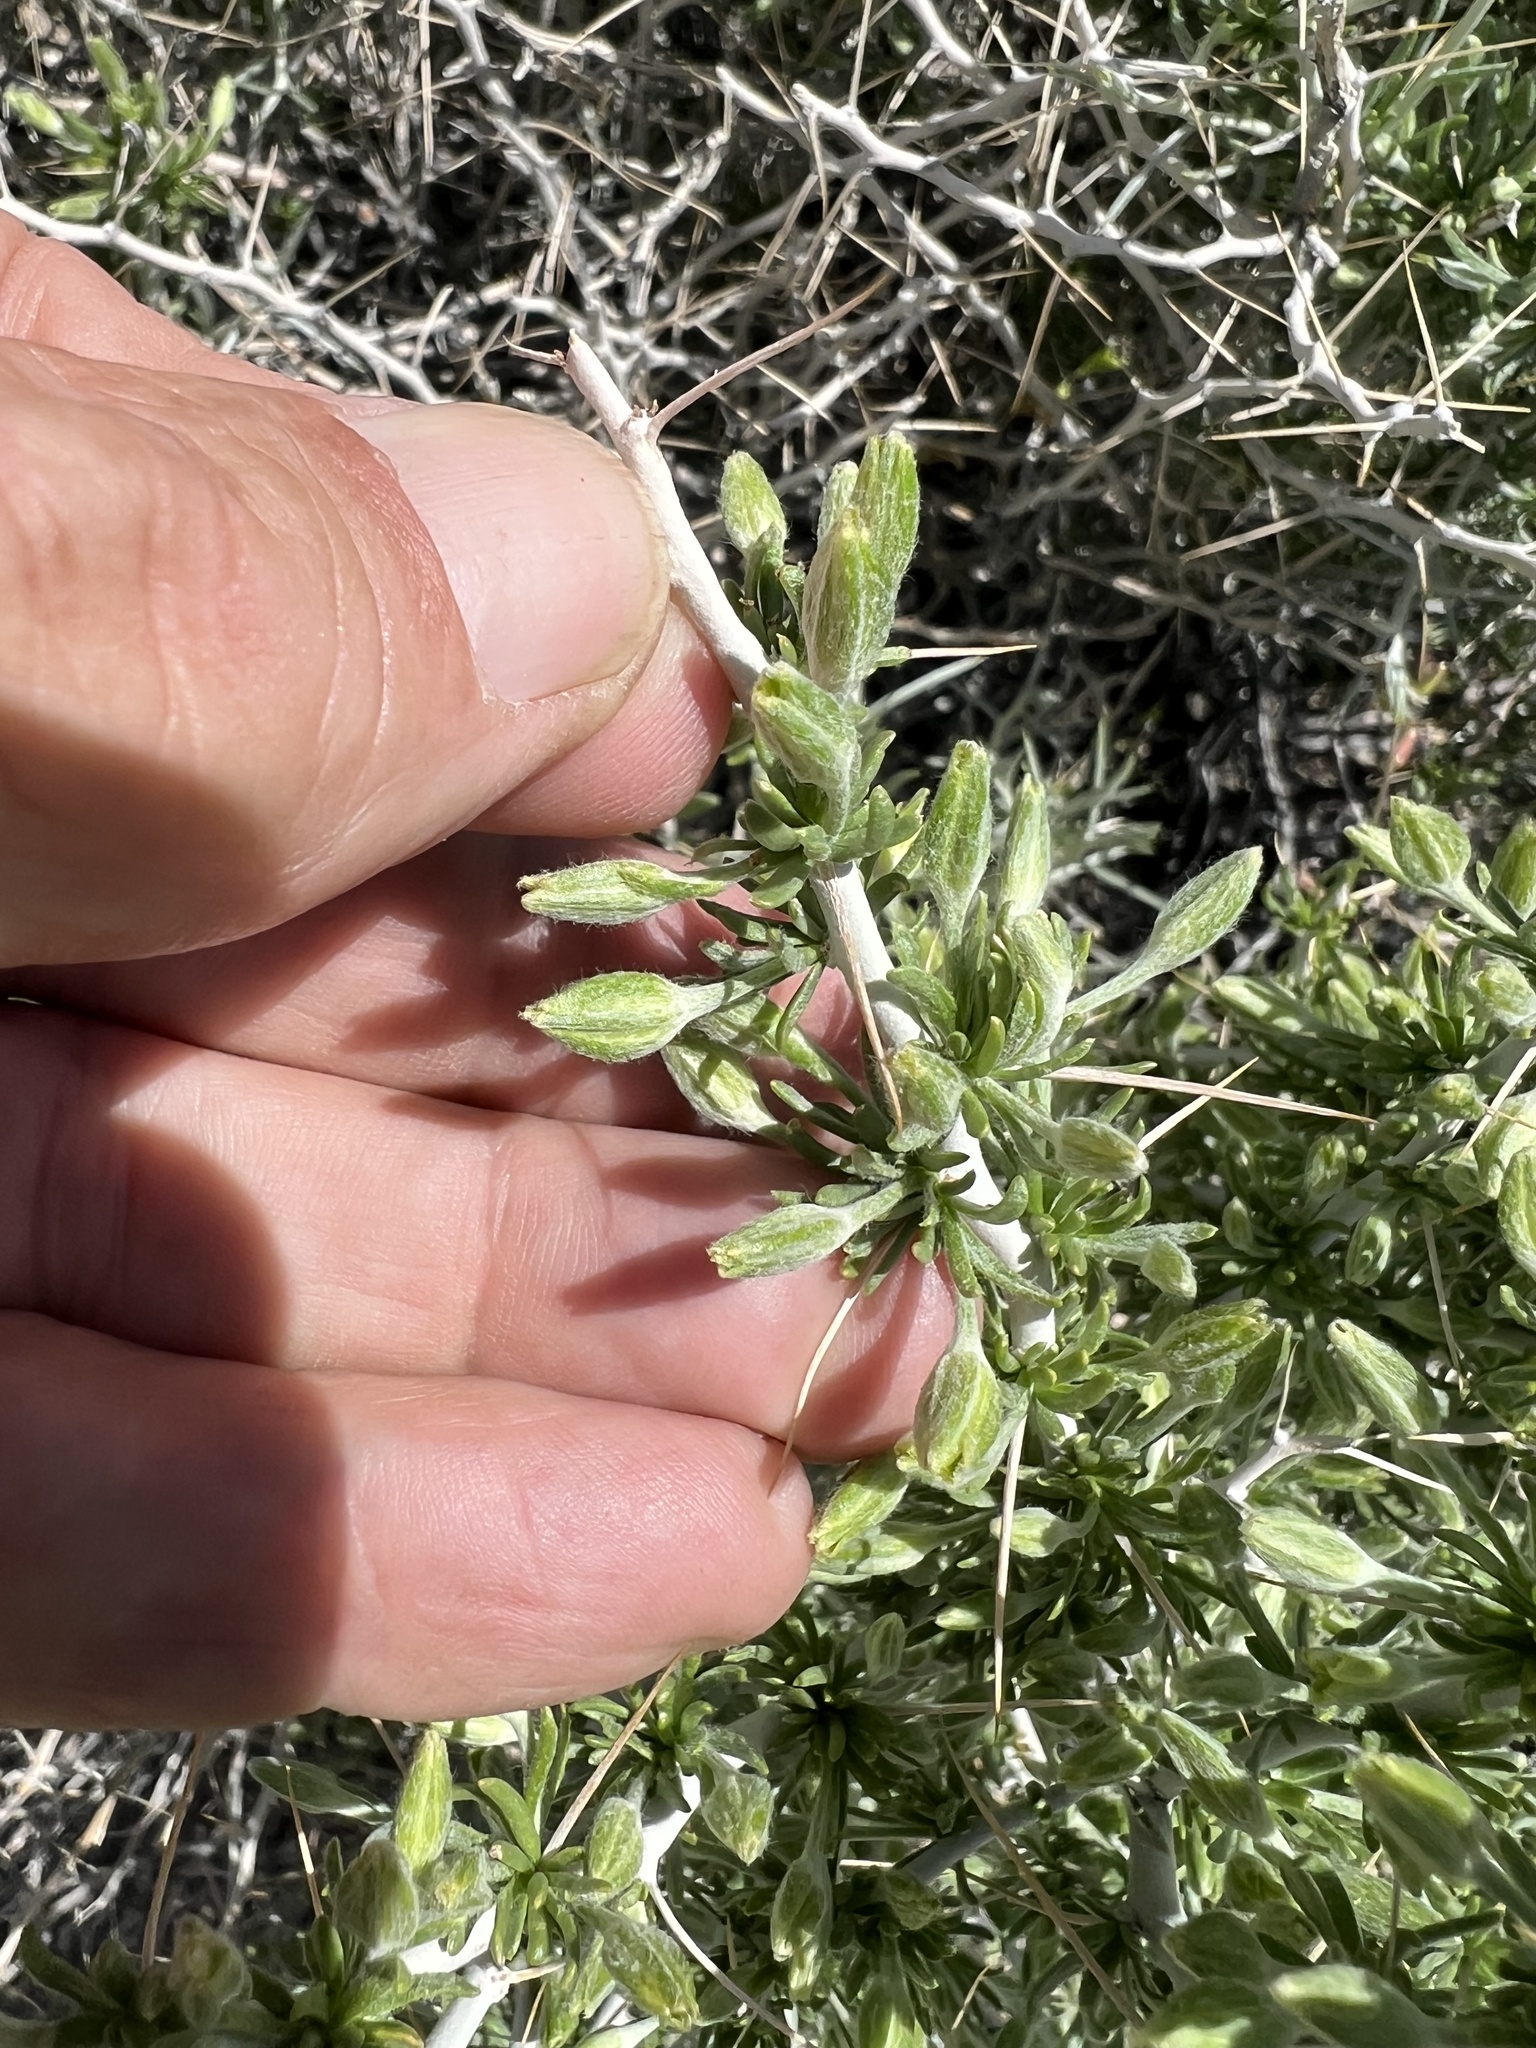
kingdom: Plantae
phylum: Tracheophyta
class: Magnoliopsida
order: Asterales
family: Asteraceae
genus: Tetradymia
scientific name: Tetradymia axillaris
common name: Long-spine horsebrush
